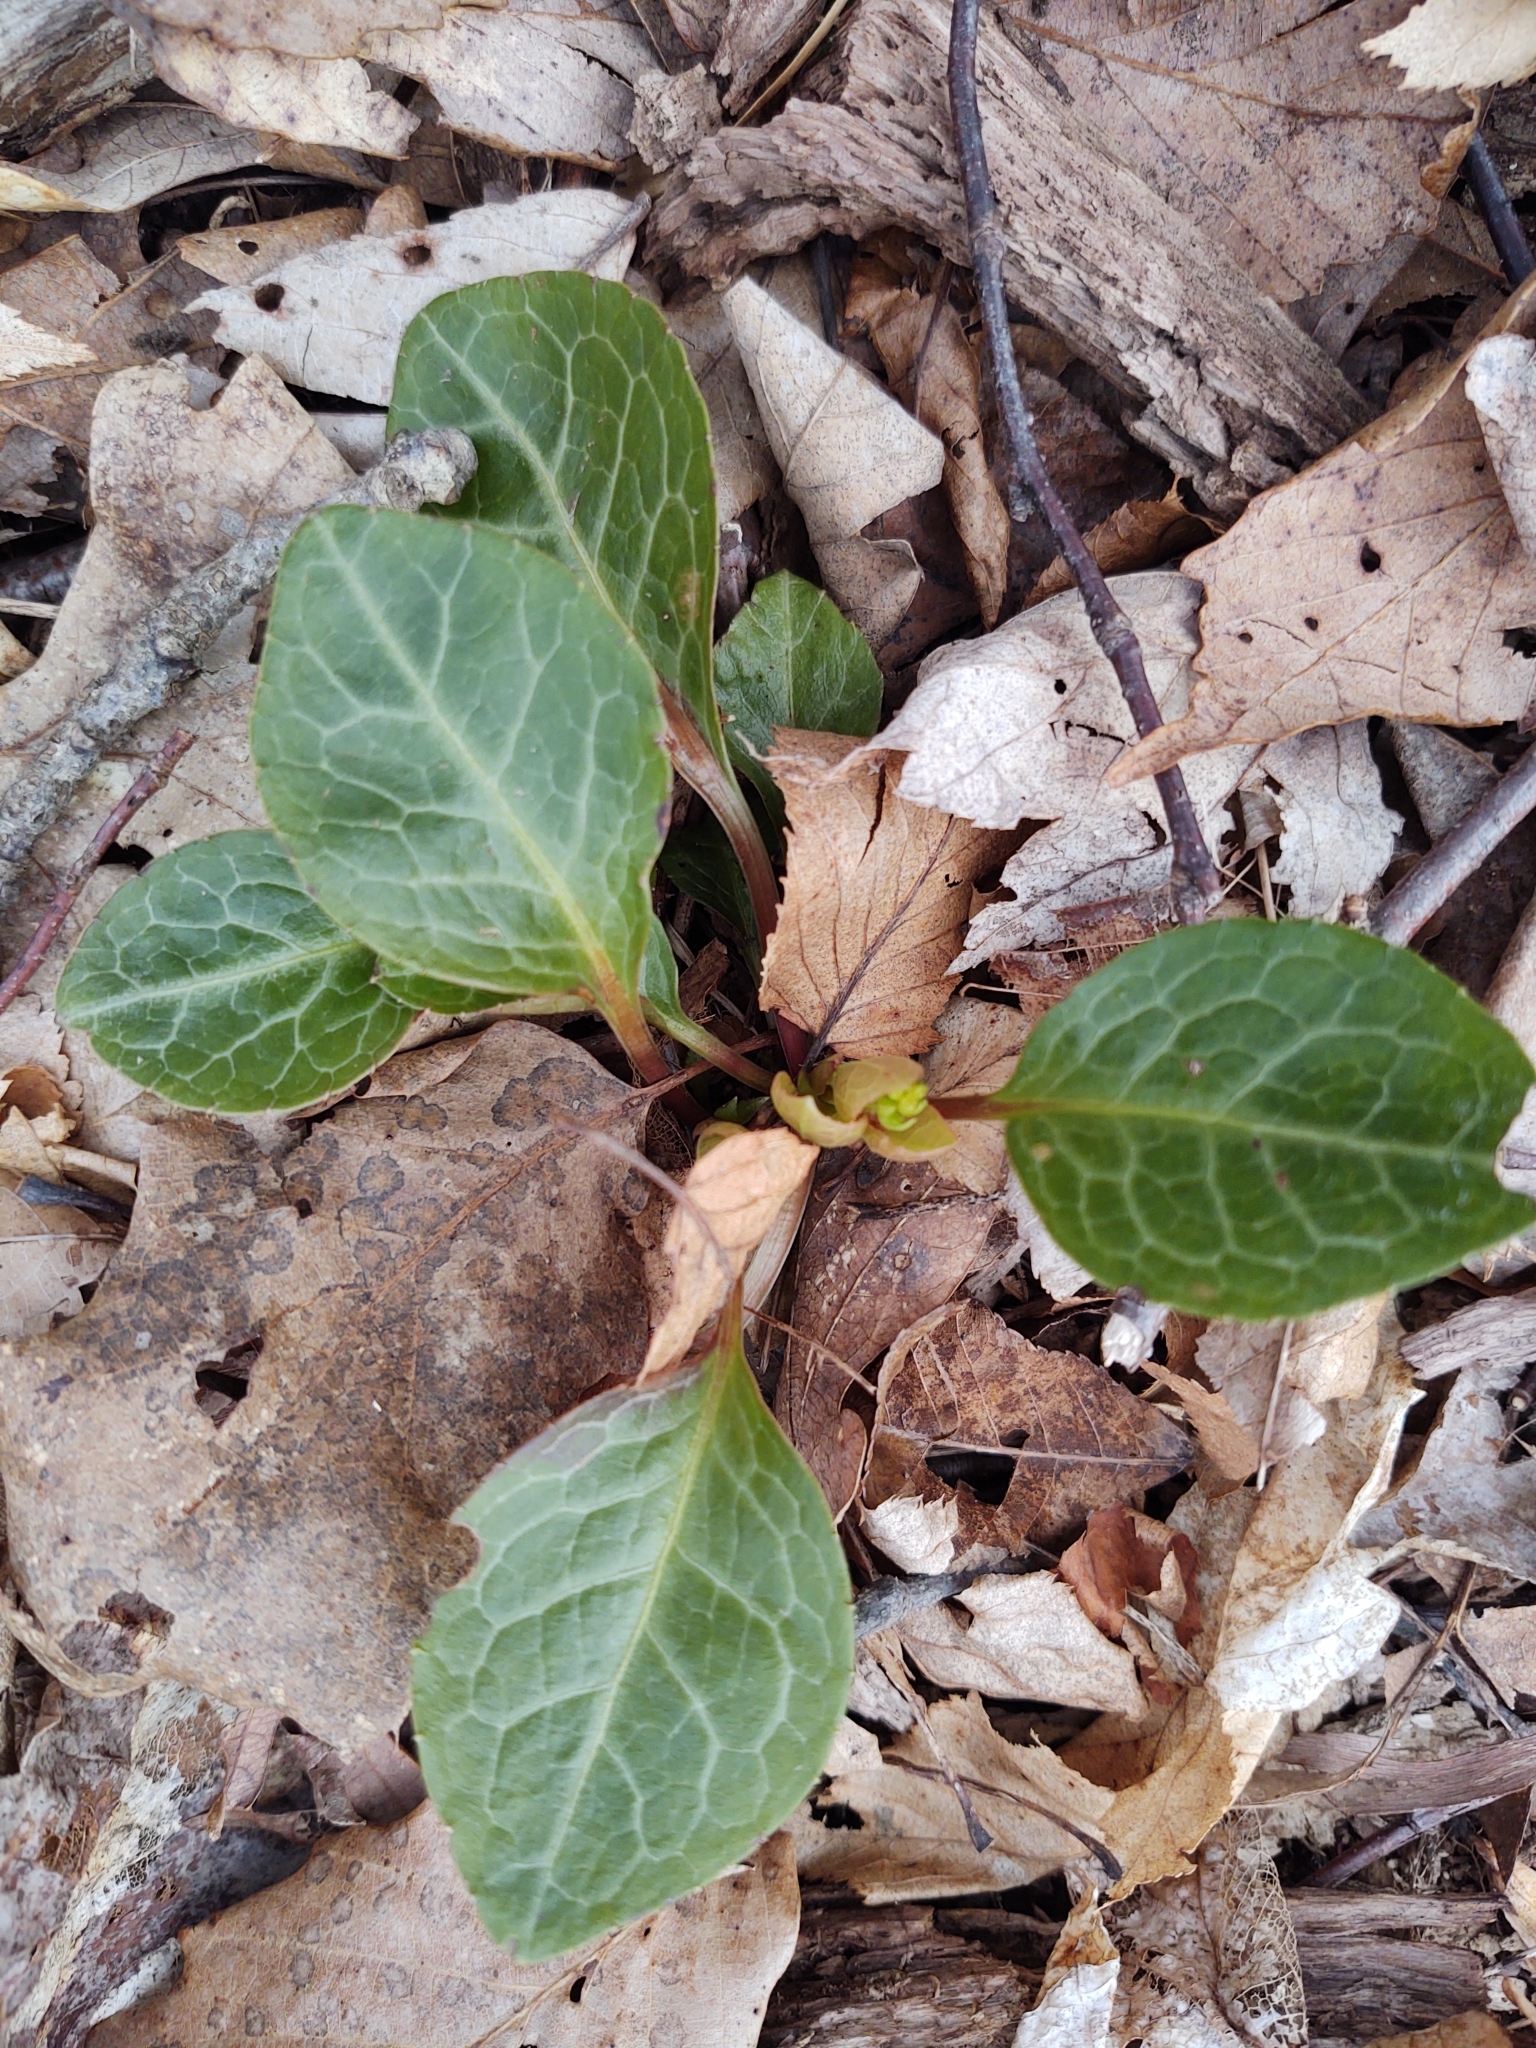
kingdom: Plantae
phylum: Tracheophyta
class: Magnoliopsida
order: Ericales
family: Ericaceae
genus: Pyrola
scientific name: Pyrola americana
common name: American wintergreen
